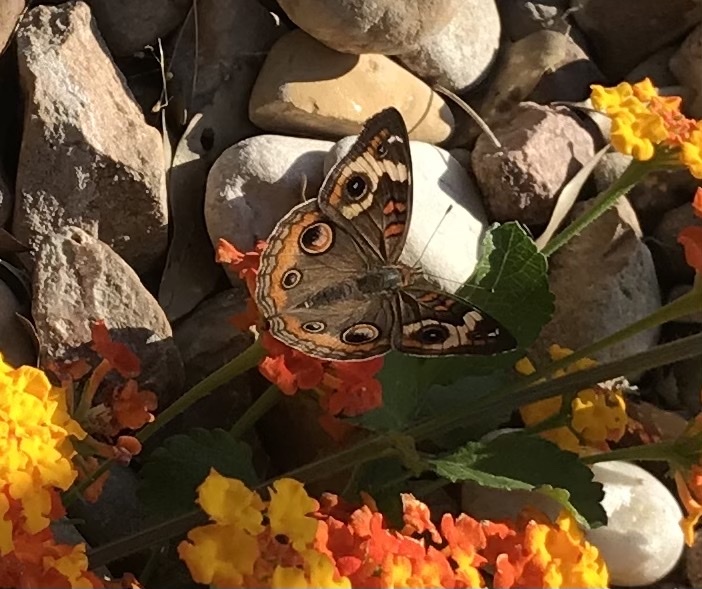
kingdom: Animalia
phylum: Arthropoda
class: Insecta
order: Lepidoptera
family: Nymphalidae
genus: Junonia
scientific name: Junonia coenia
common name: Common buckeye
